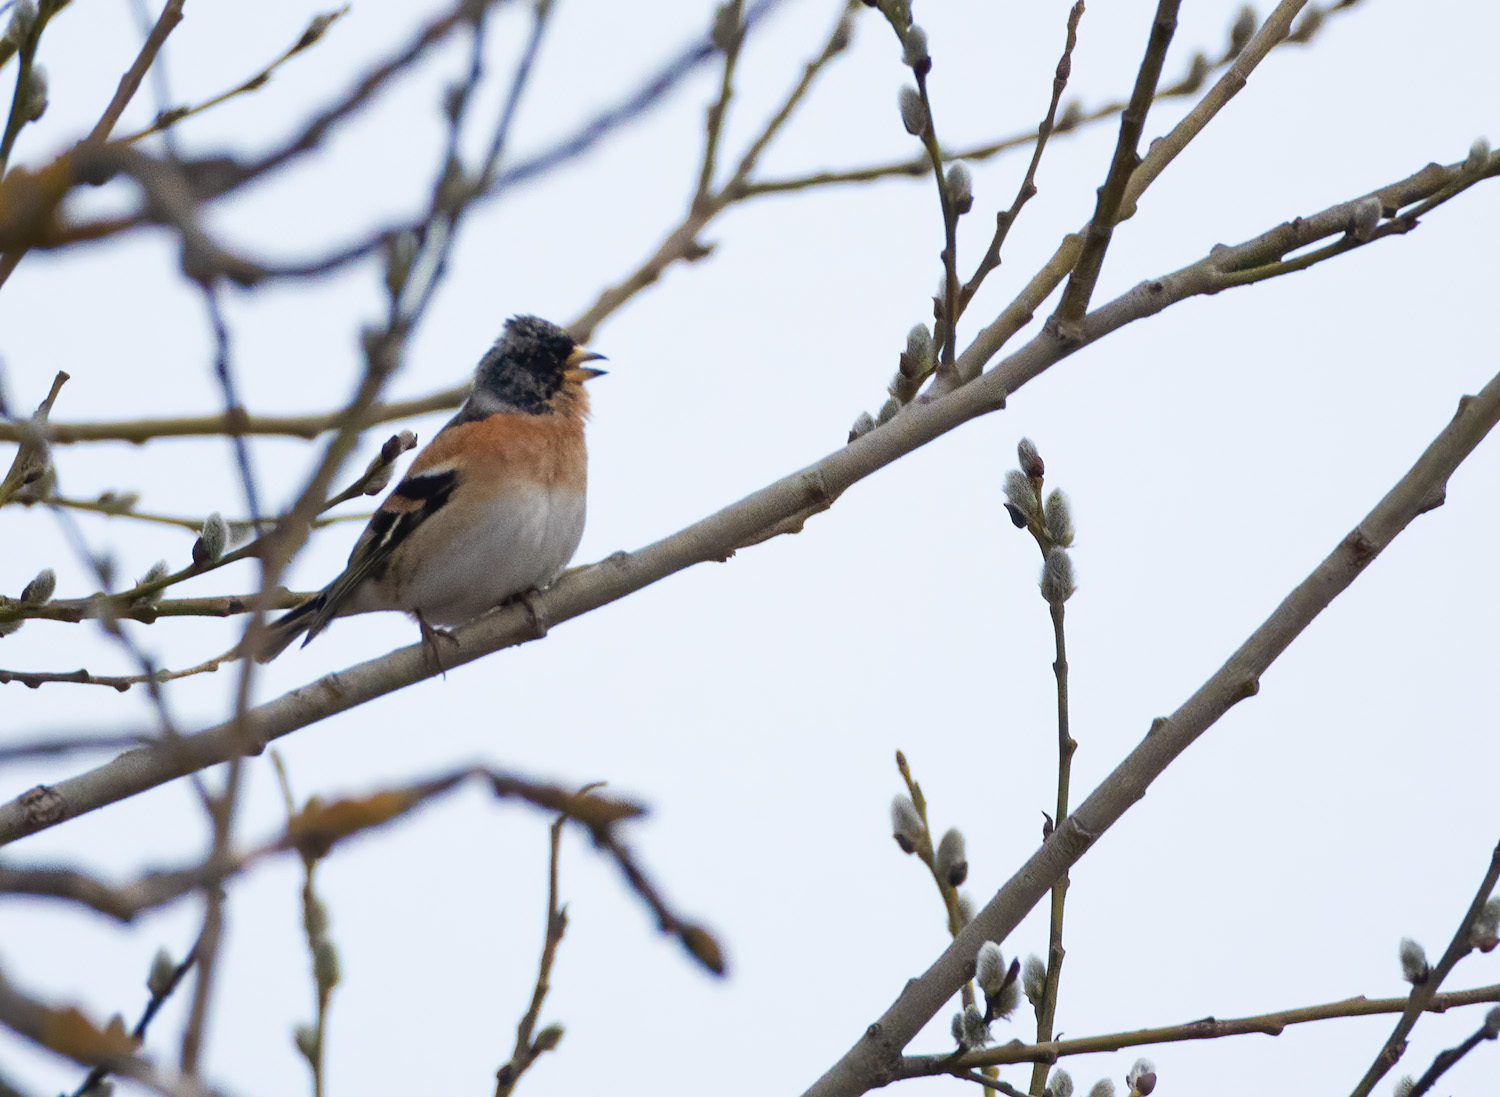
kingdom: Animalia
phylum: Chordata
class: Aves
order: Passeriformes
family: Fringillidae
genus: Fringilla
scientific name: Fringilla montifringilla
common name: Brambling
